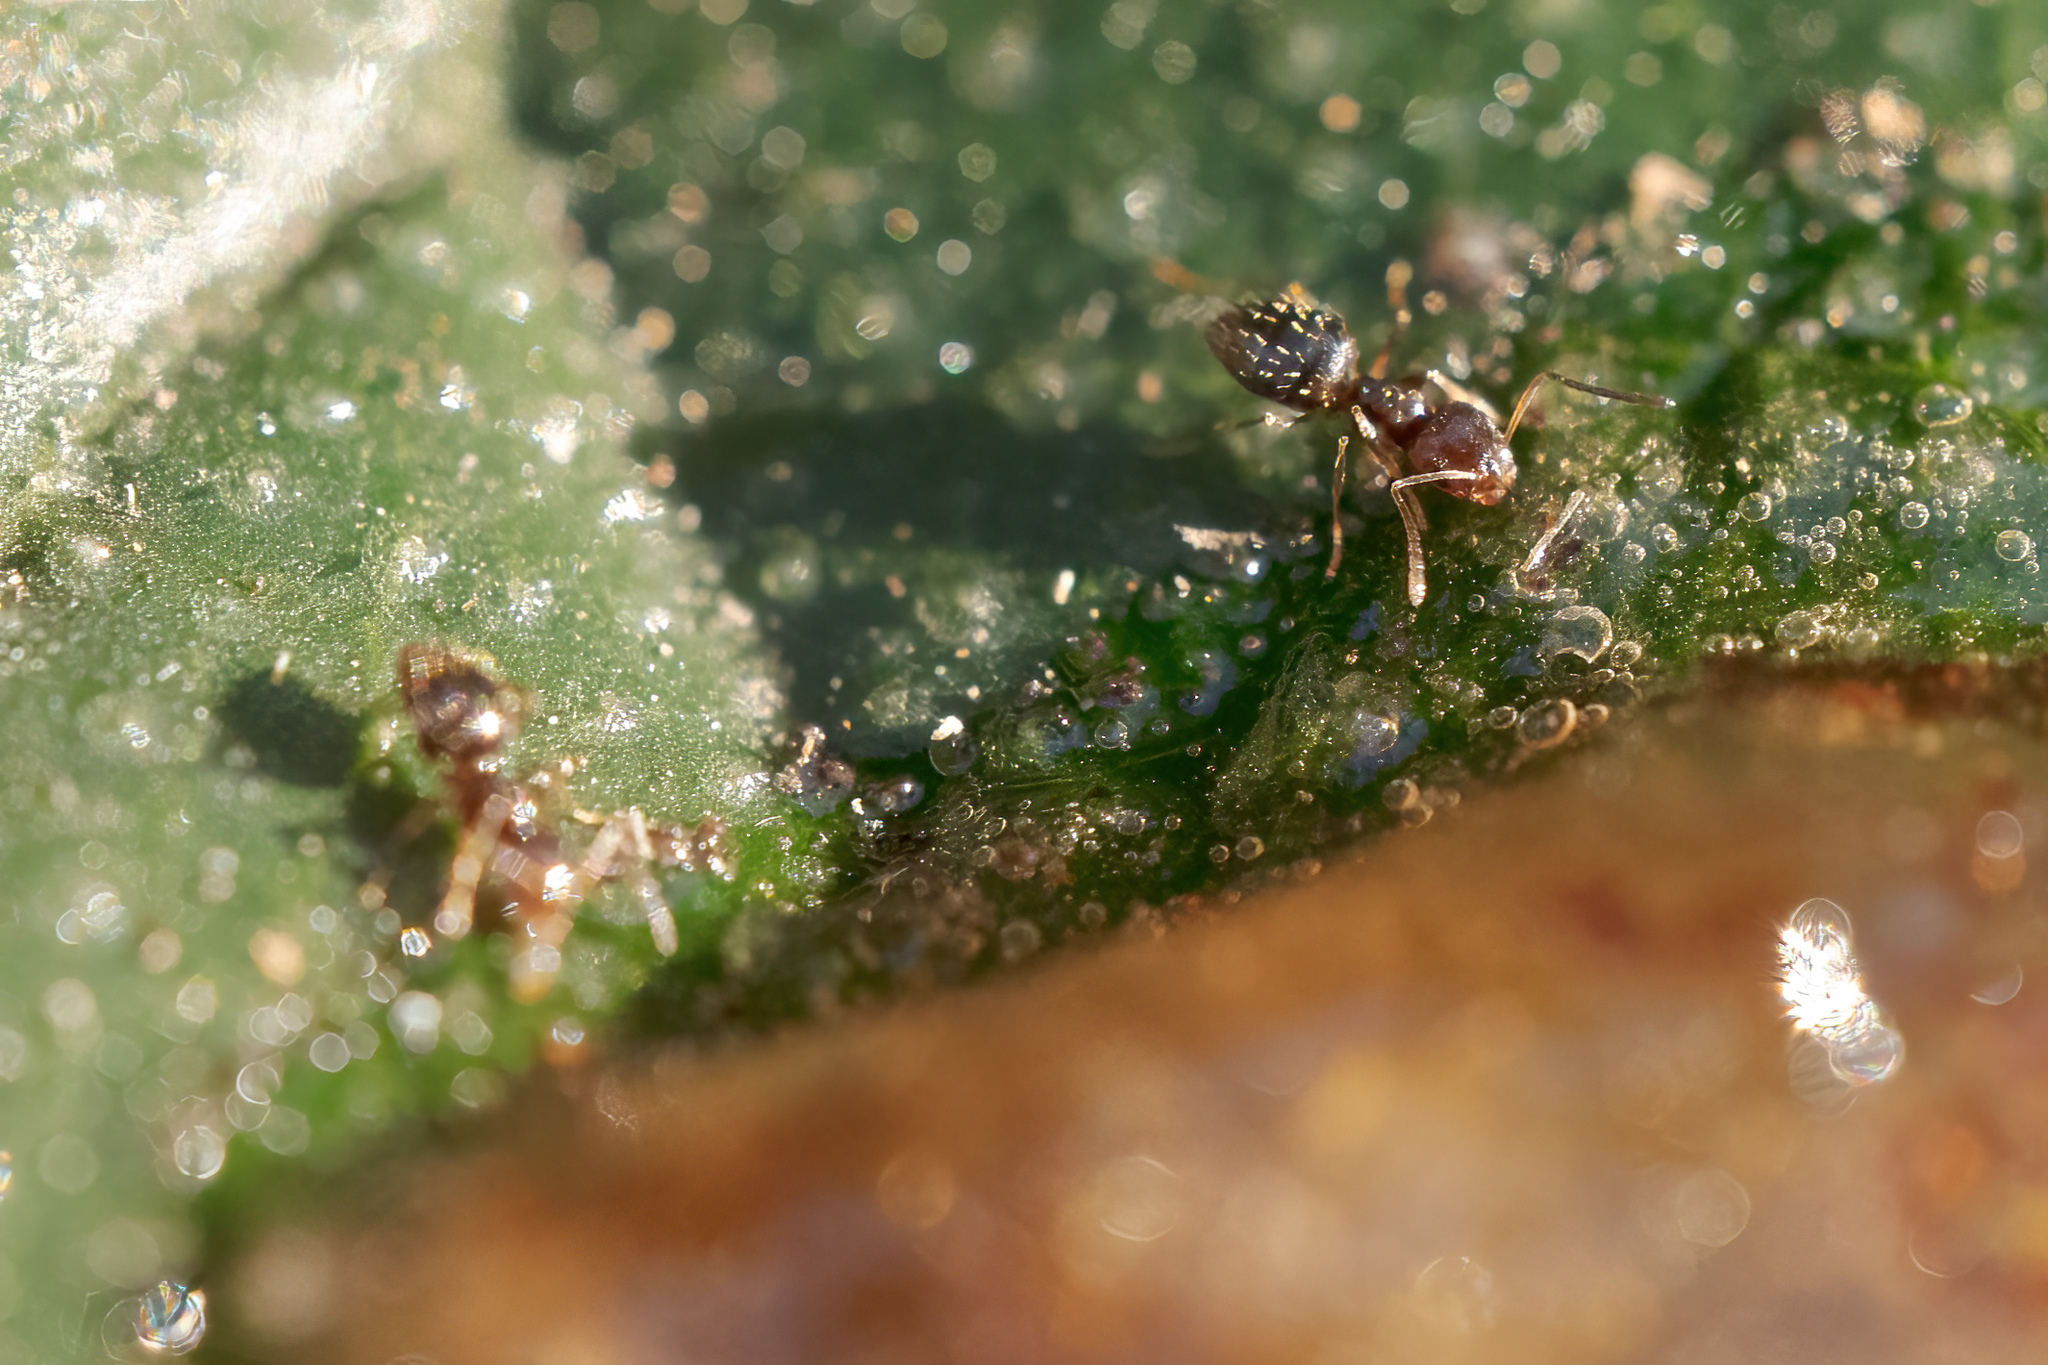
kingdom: Animalia
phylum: Arthropoda
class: Insecta
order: Hymenoptera
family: Formicidae
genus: Brachymyrmex
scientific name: Brachymyrmex patagonicus
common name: Dark rover ant
